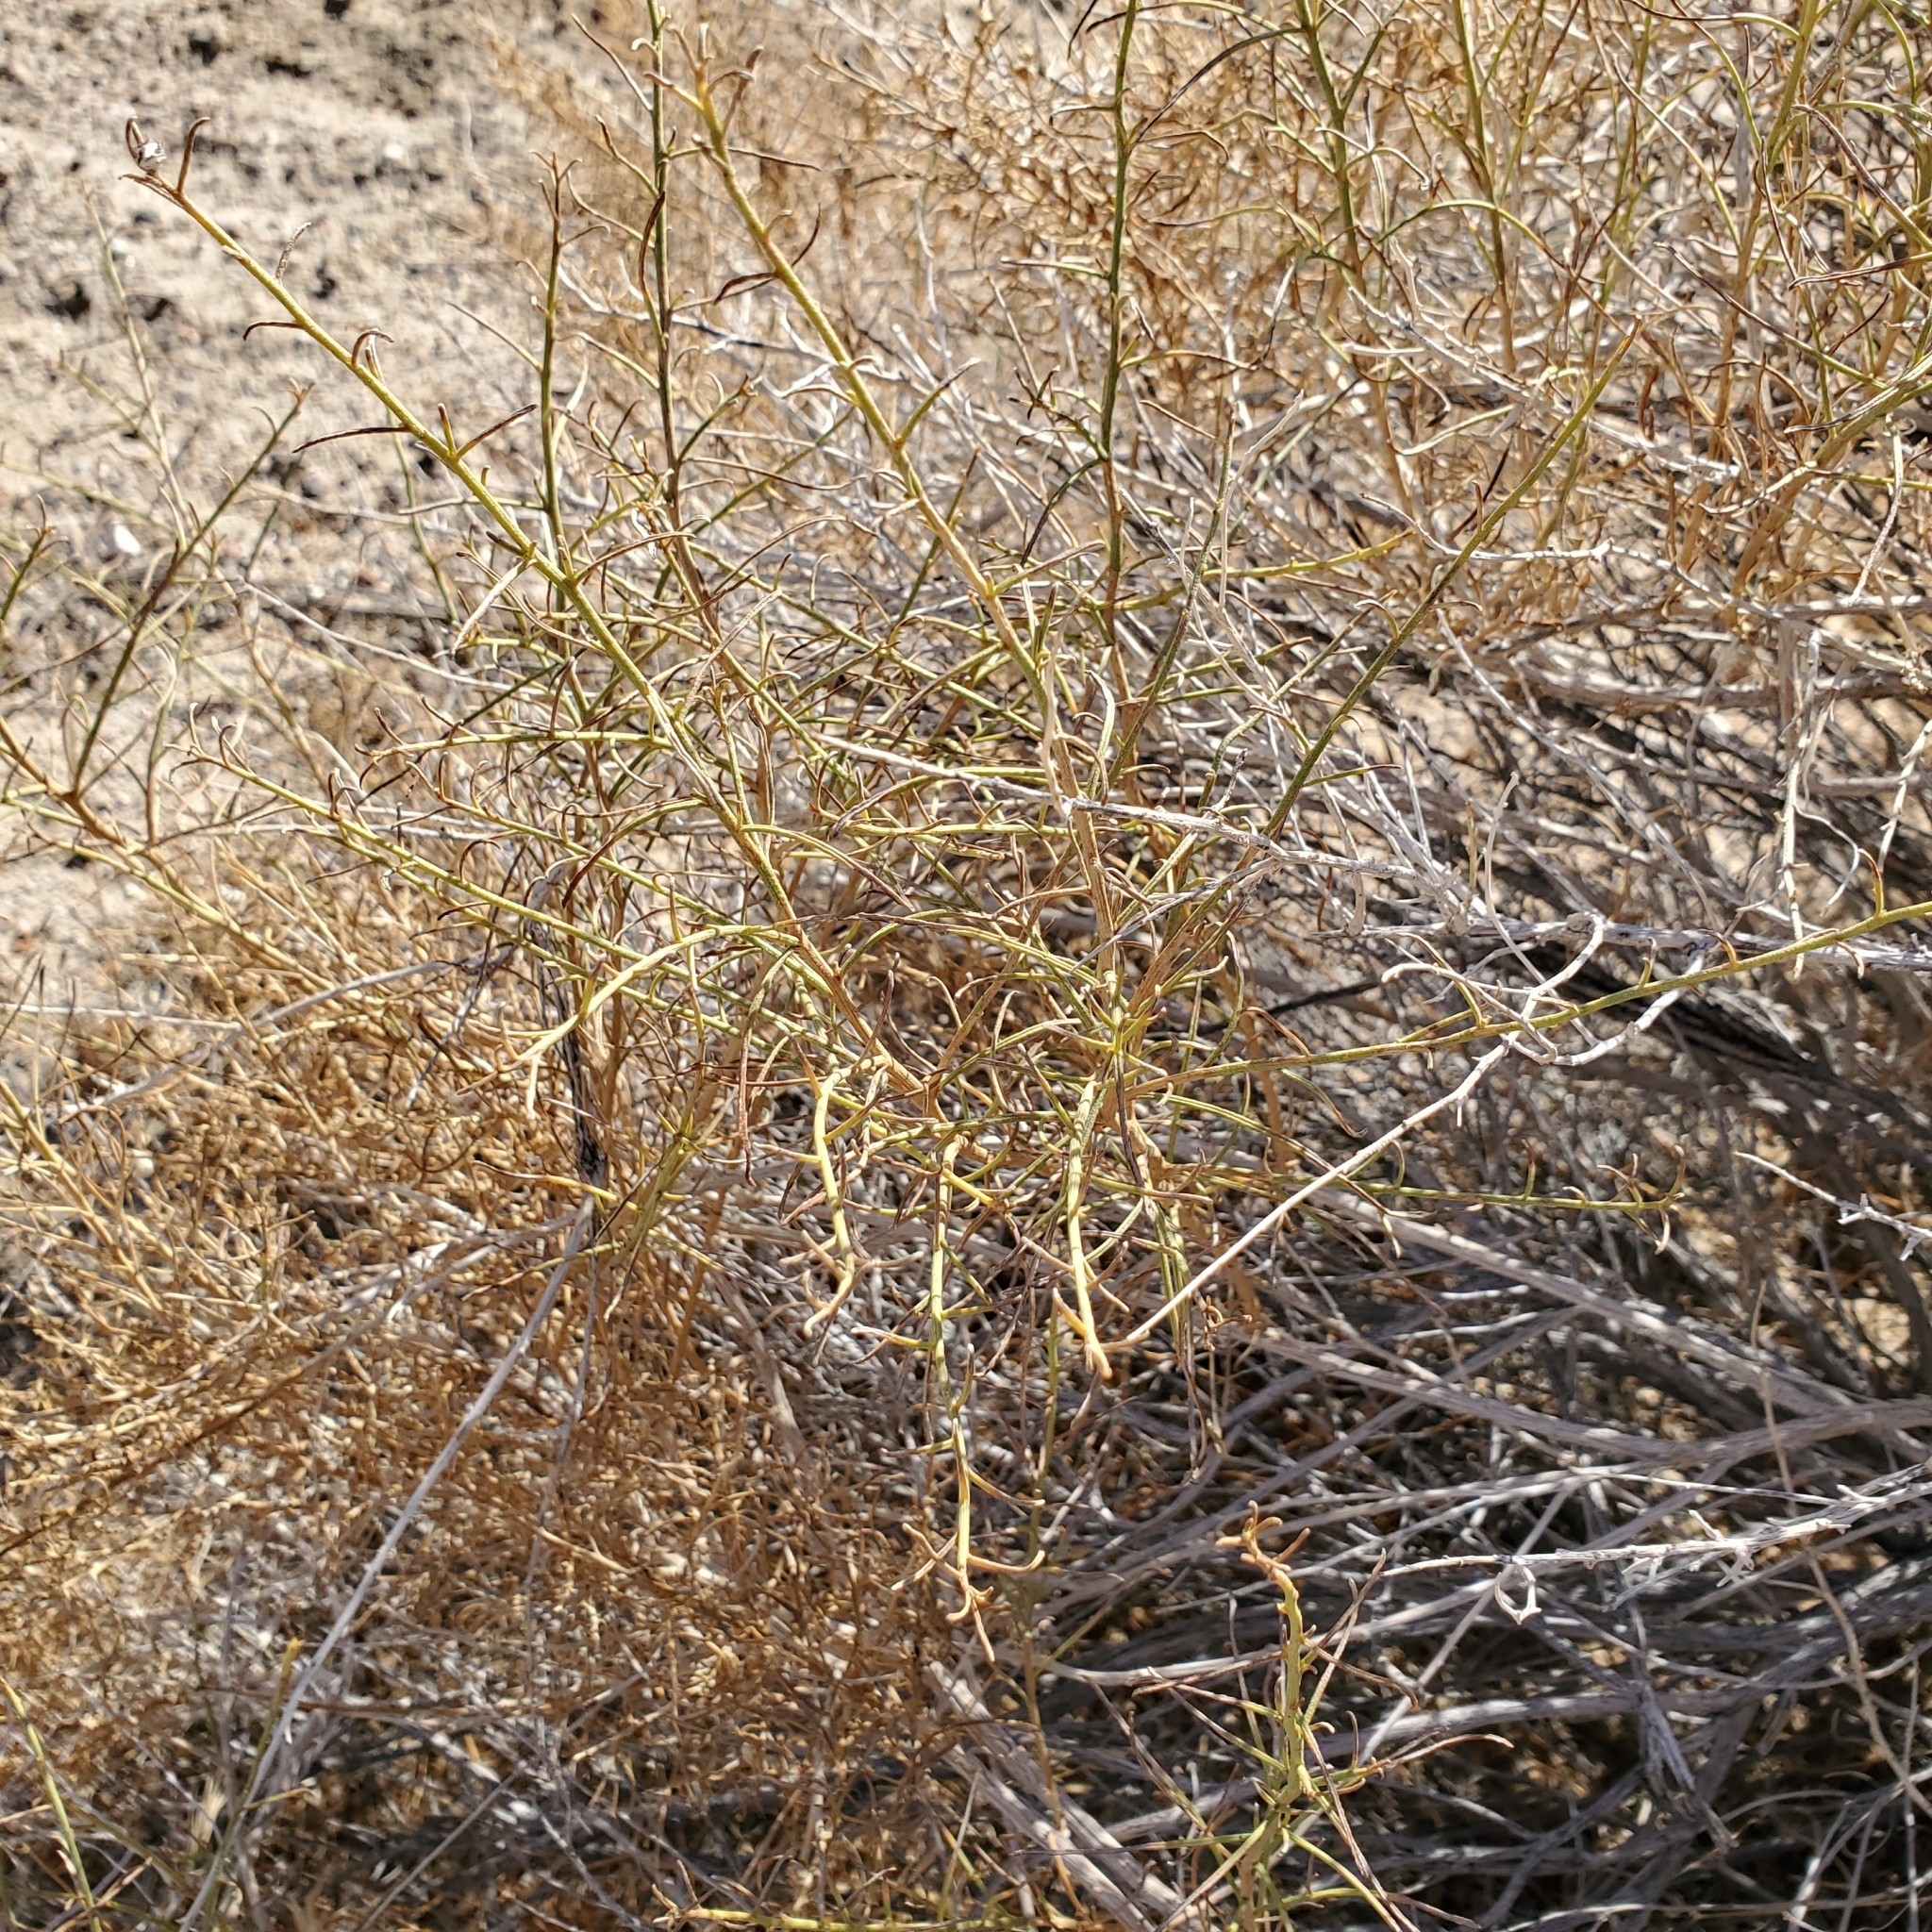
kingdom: Plantae
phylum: Tracheophyta
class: Magnoliopsida
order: Asterales
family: Asteraceae
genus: Ambrosia
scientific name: Ambrosia salsola
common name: Burrobrush
